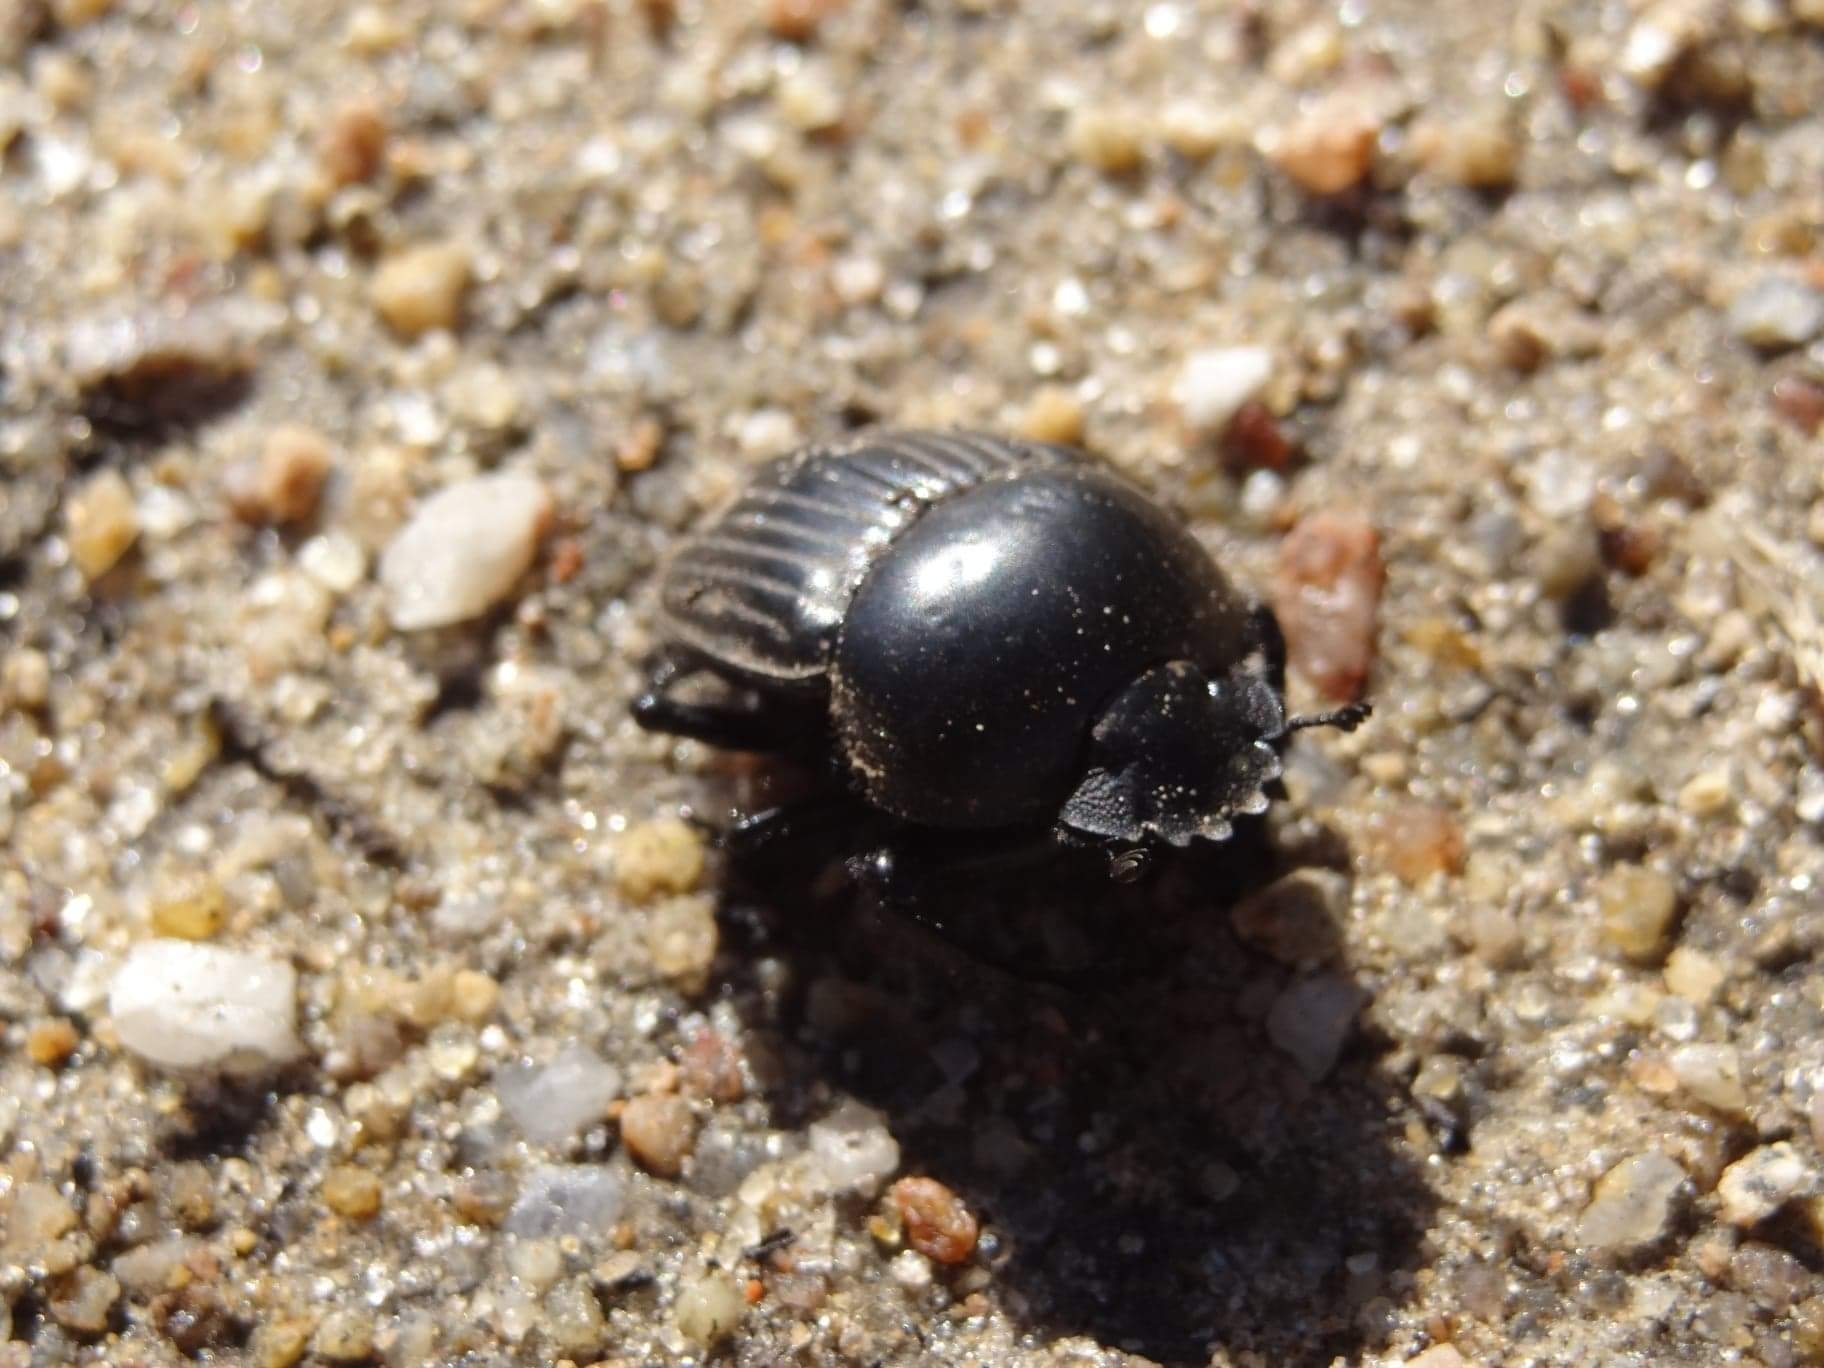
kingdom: Animalia
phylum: Arthropoda
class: Insecta
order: Coleoptera
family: Scarabaeidae
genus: Ateuchetus
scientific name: Ateuchetus laticollis
